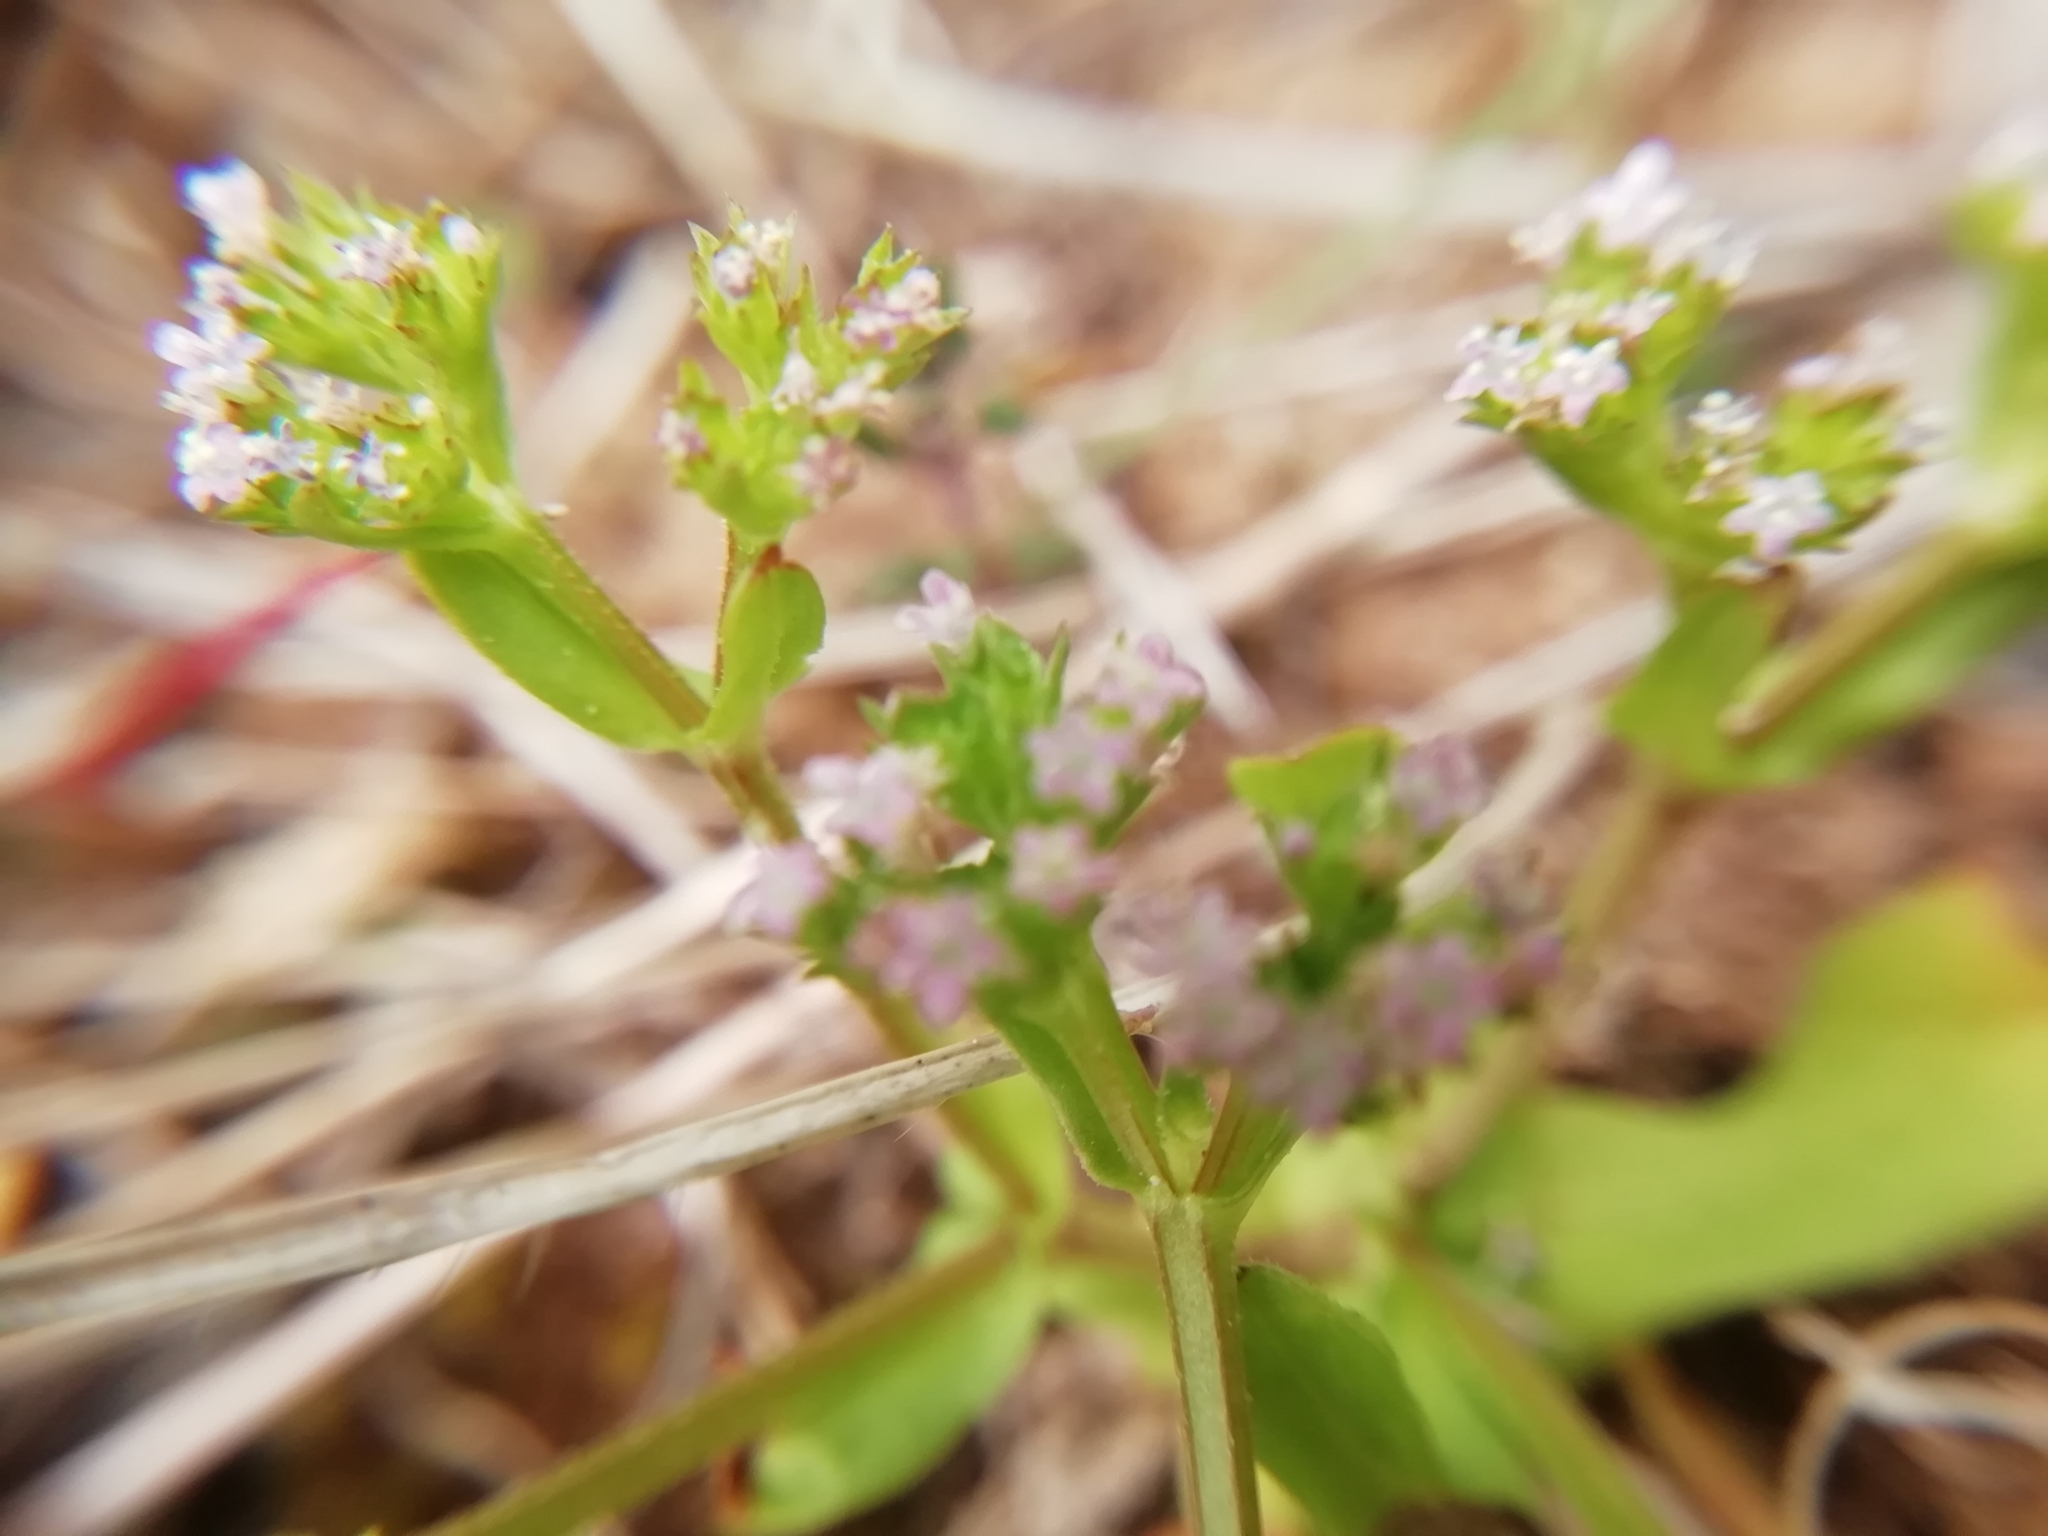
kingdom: Plantae
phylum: Tracheophyta
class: Magnoliopsida
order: Dipsacales
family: Caprifoliaceae
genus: Valerianella
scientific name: Valerianella eriocarpa
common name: Hairy-fruited cornsalad
